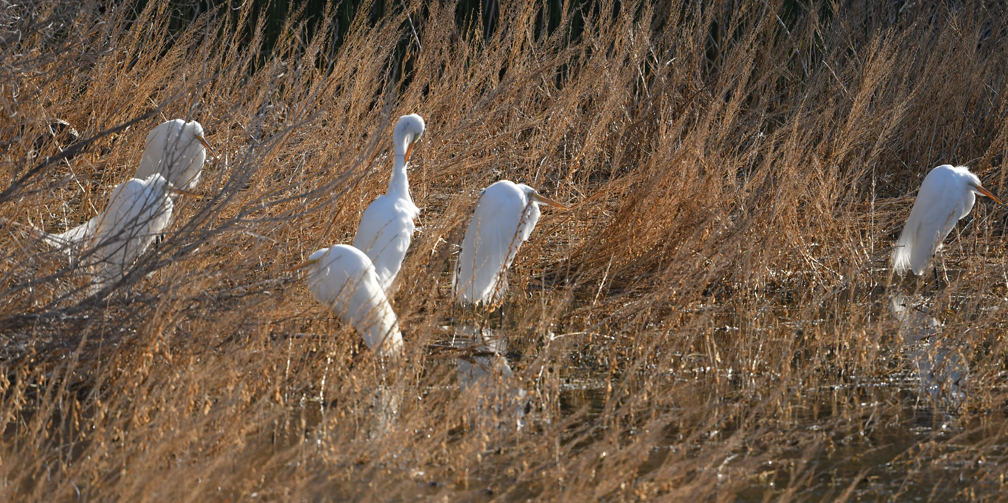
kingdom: Animalia
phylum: Chordata
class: Aves
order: Pelecaniformes
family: Ardeidae
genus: Ardea
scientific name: Ardea alba
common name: Great egret
